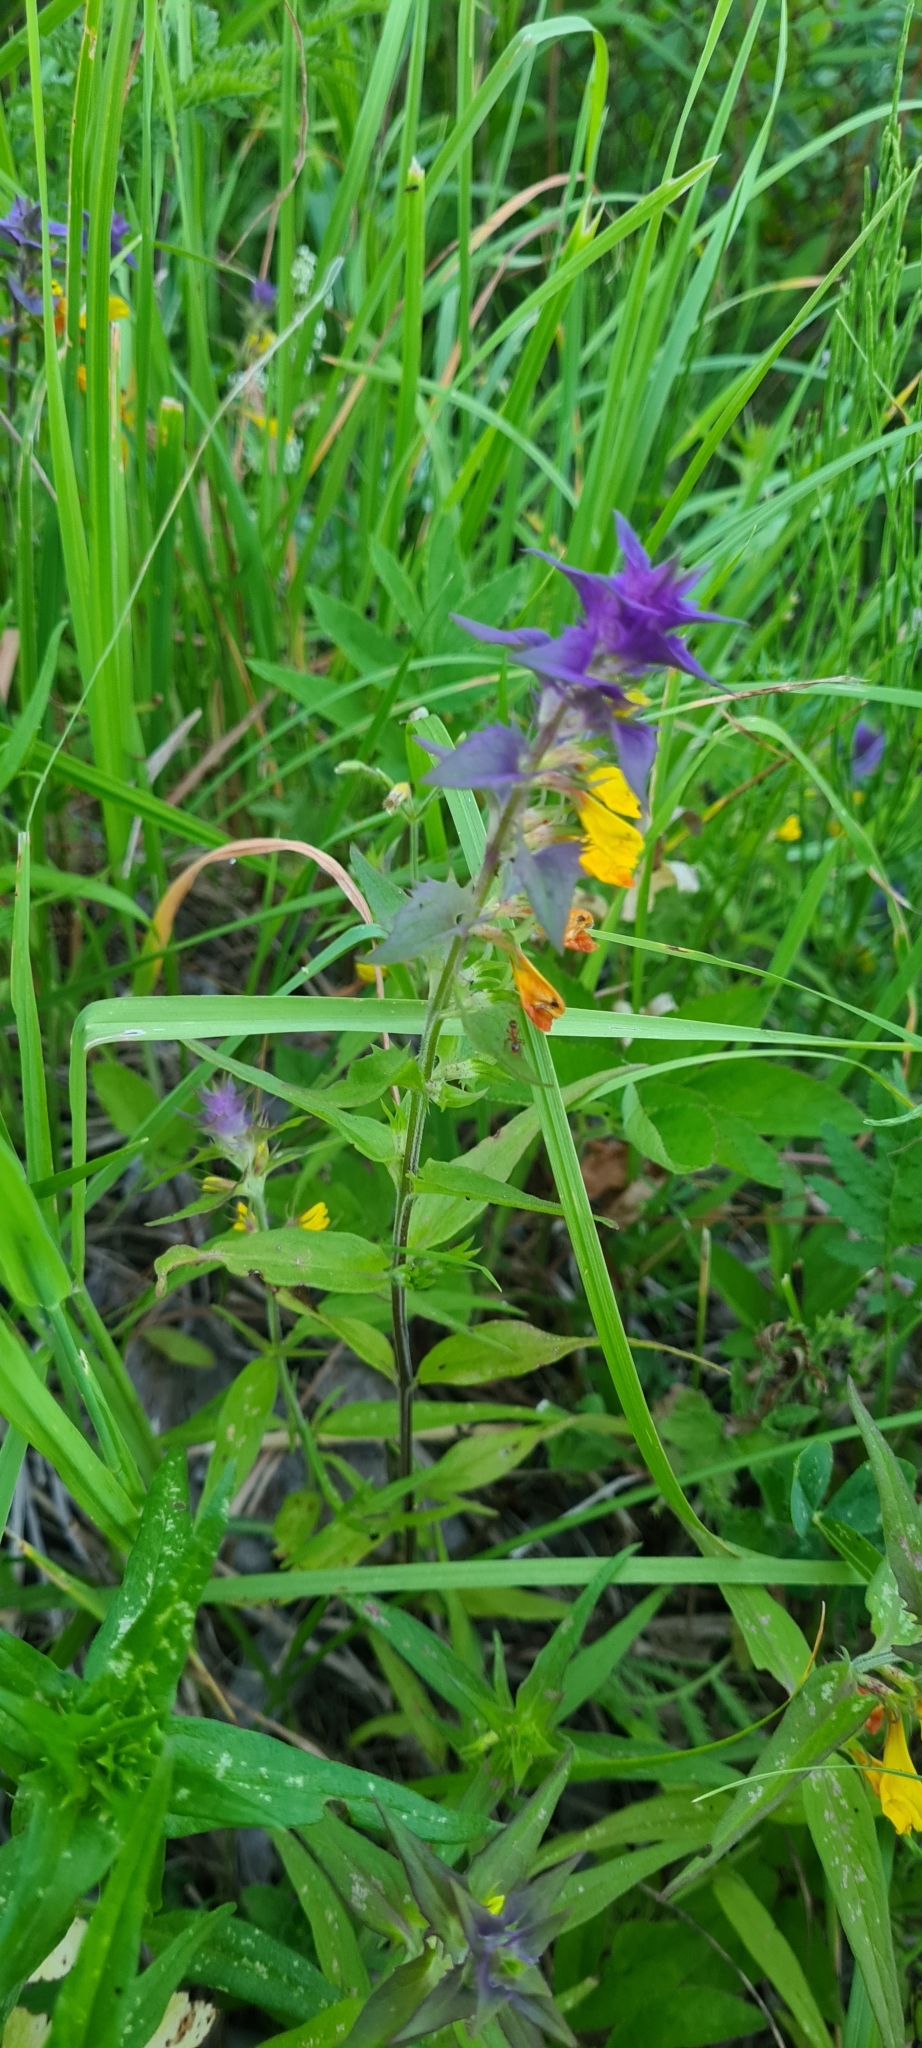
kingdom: Plantae
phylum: Tracheophyta
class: Magnoliopsida
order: Lamiales
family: Orobanchaceae
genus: Melampyrum
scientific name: Melampyrum nemorosum
